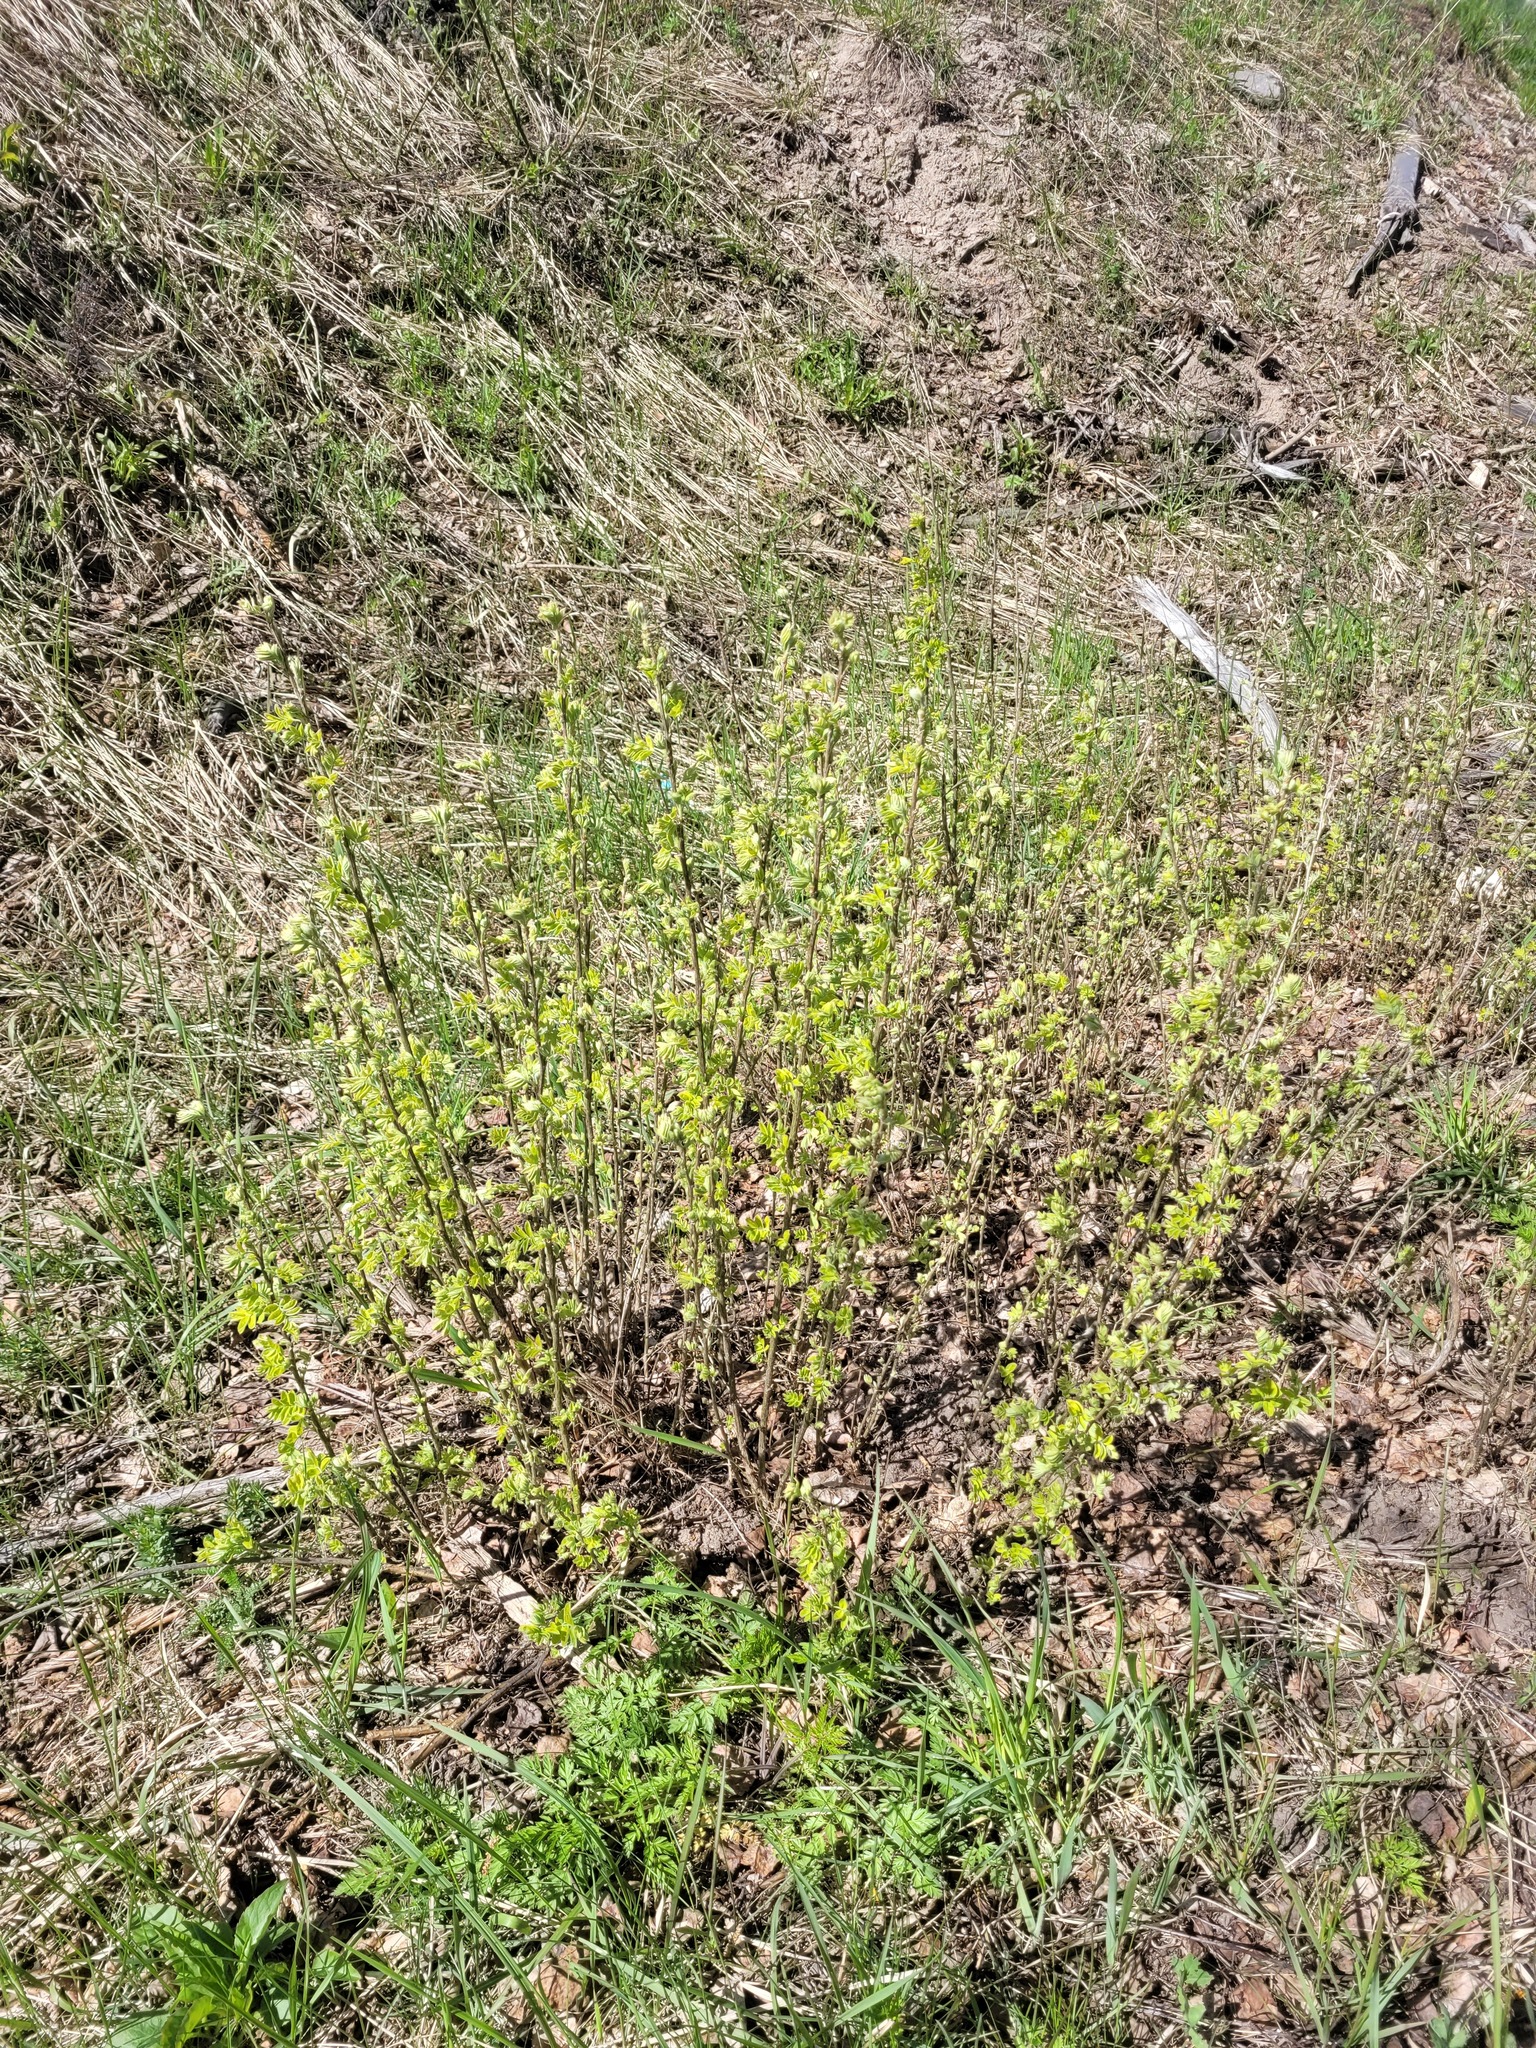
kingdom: Plantae
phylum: Tracheophyta
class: Magnoliopsida
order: Fabales
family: Fabaceae
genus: Caragana
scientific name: Caragana arborescens
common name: Siberian peashrub
